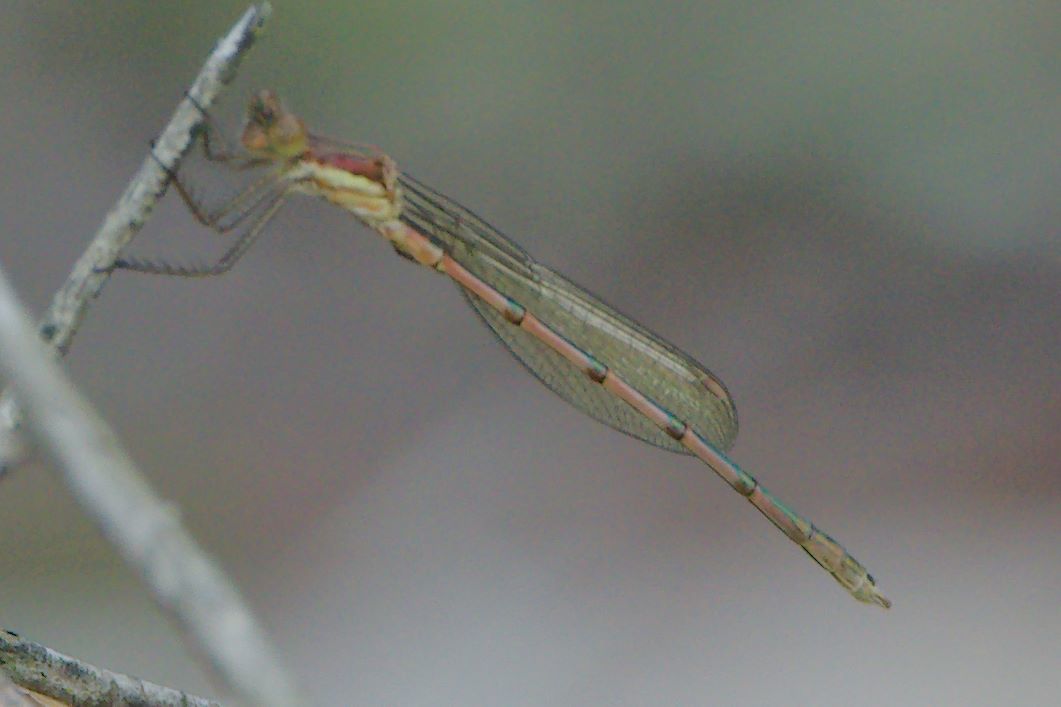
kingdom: Animalia
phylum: Arthropoda
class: Insecta
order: Odonata
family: Lestidae
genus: Lestes
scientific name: Lestes australis
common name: Southern spreadwing
